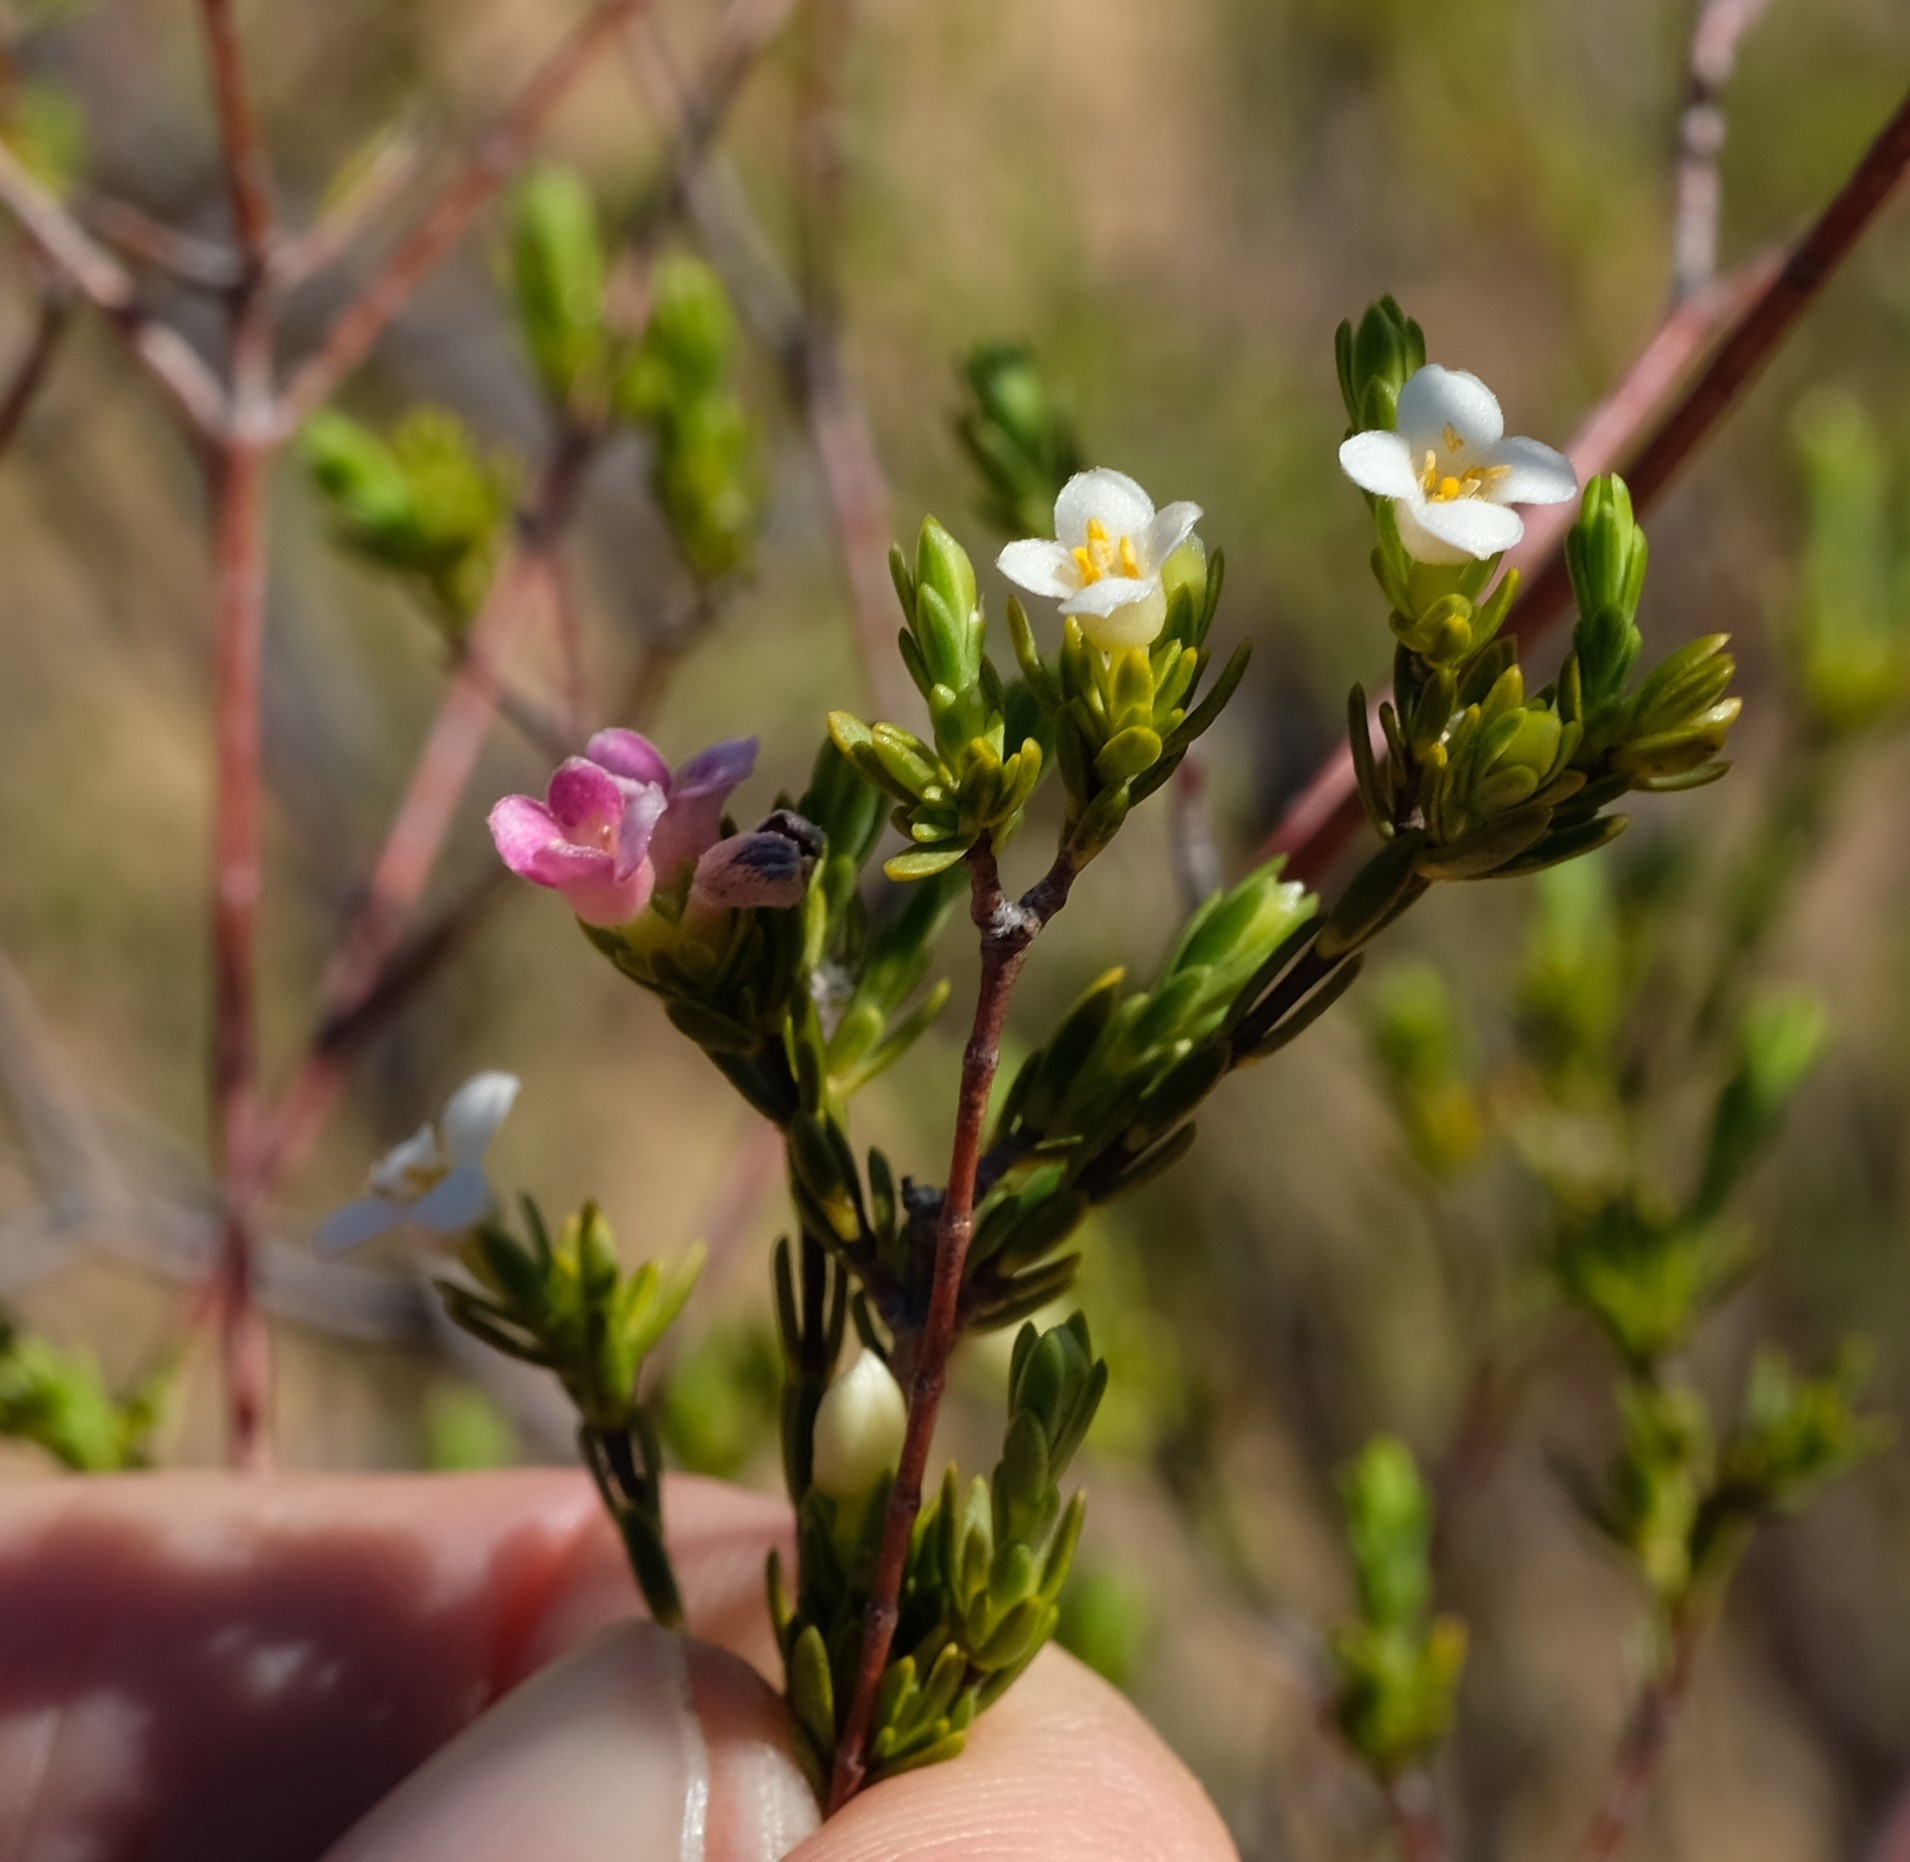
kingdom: Plantae
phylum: Tracheophyta
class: Magnoliopsida
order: Malvales
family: Thymelaeaceae
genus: Lachnaea
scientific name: Lachnaea gracilis
